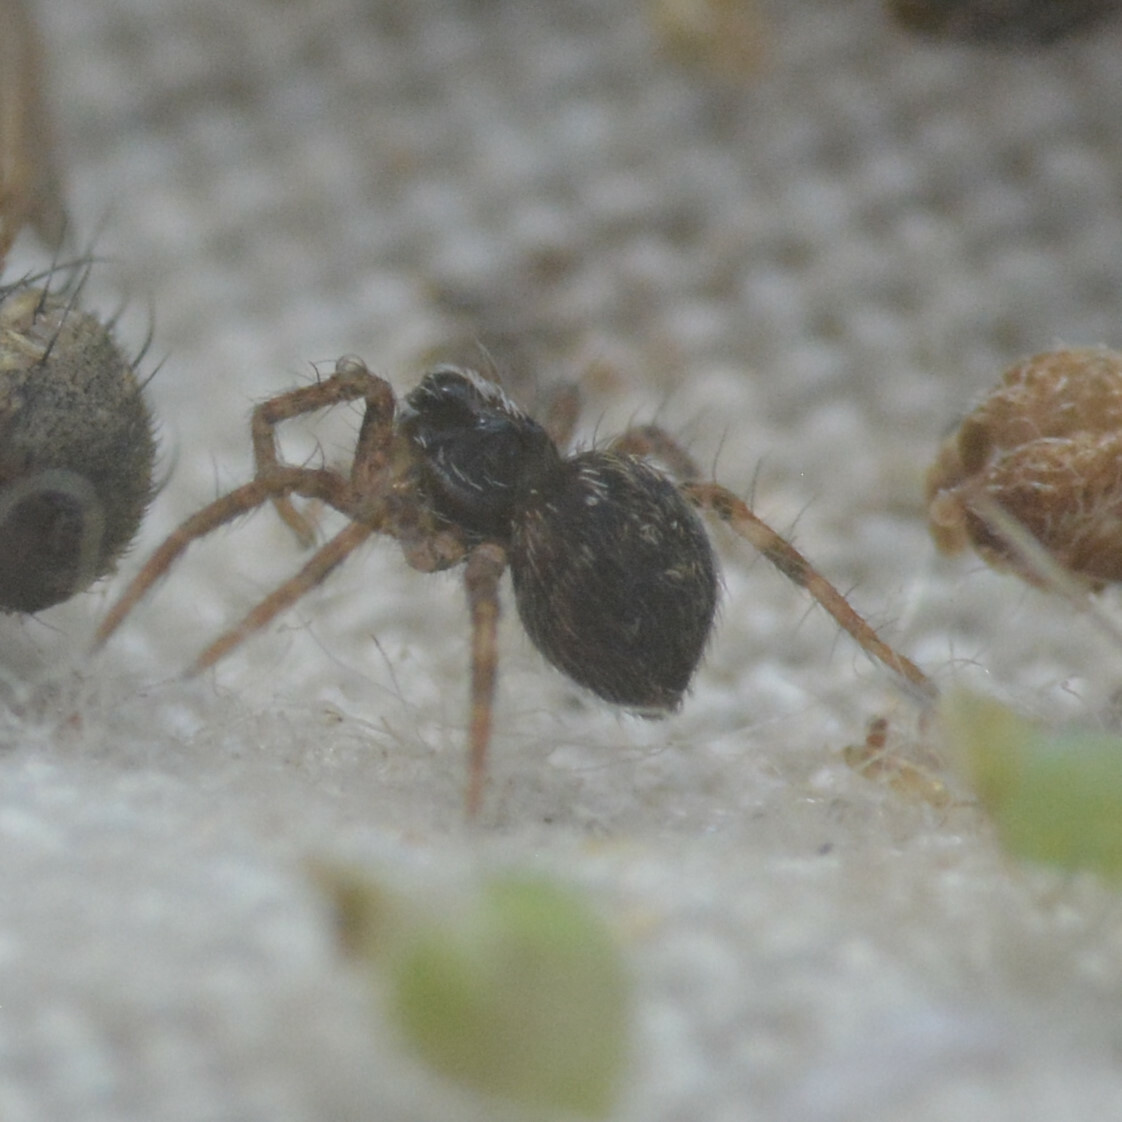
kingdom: Animalia
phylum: Arthropoda
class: Arachnida
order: Araneae
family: Pisauridae
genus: Pisaura
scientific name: Pisaura mirabilis
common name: Tent spider
